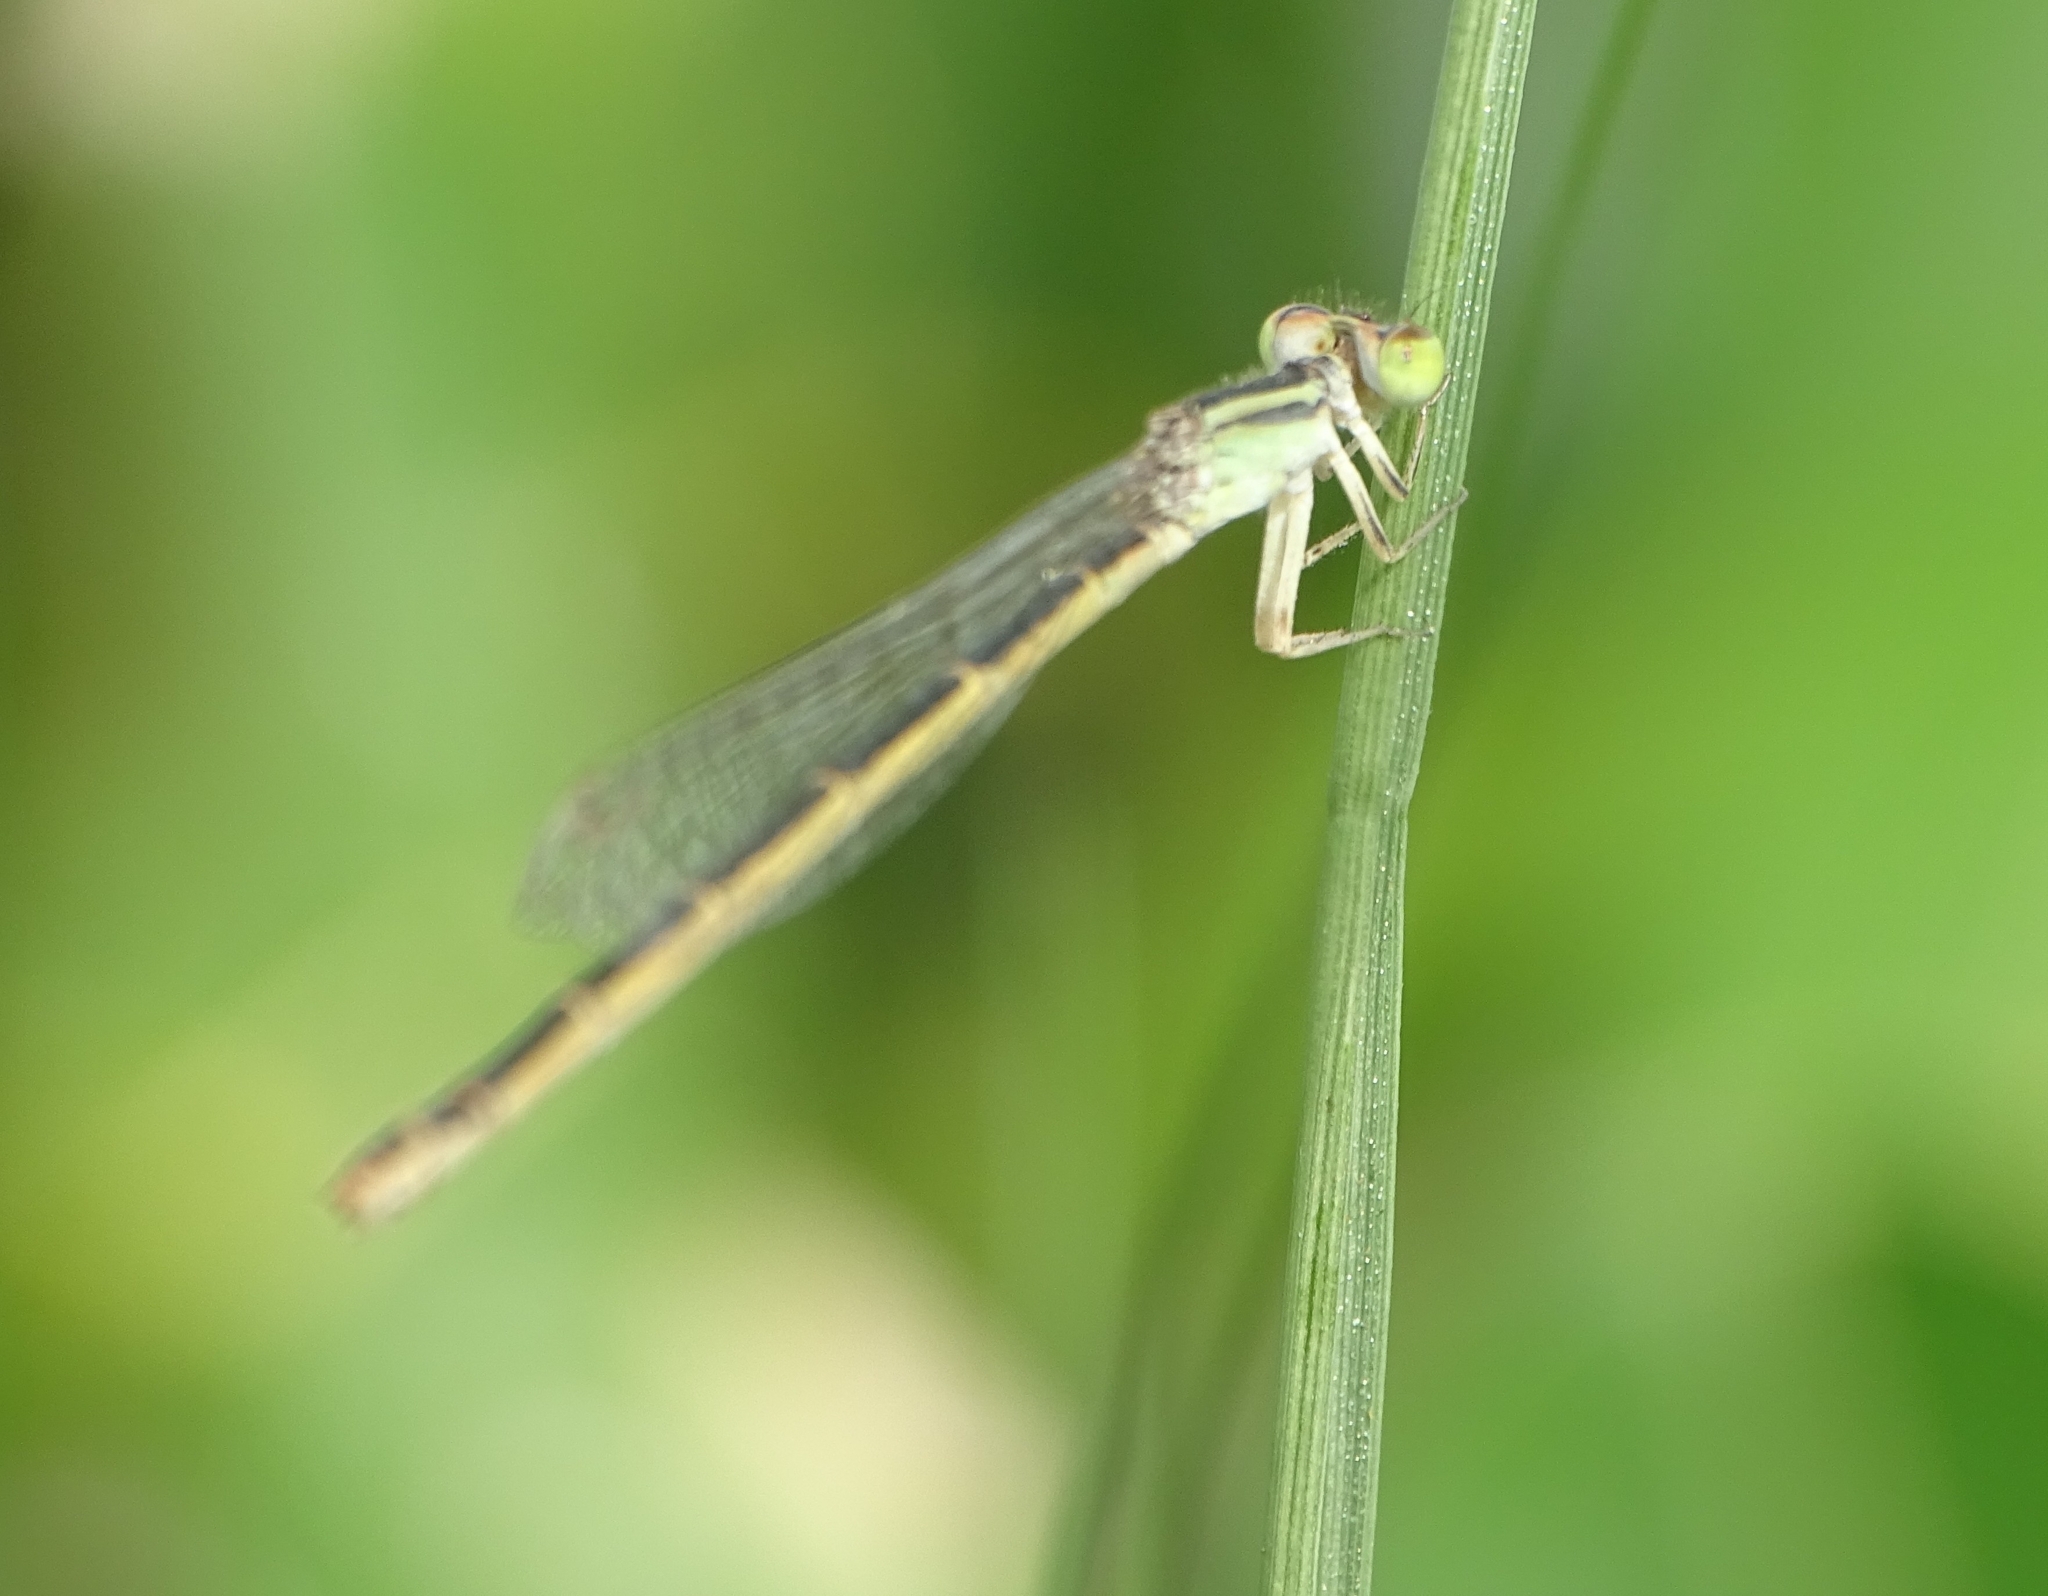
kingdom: Animalia
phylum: Arthropoda
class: Insecta
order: Odonata
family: Coenagrionidae
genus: Ischnura
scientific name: Ischnura rubilio
